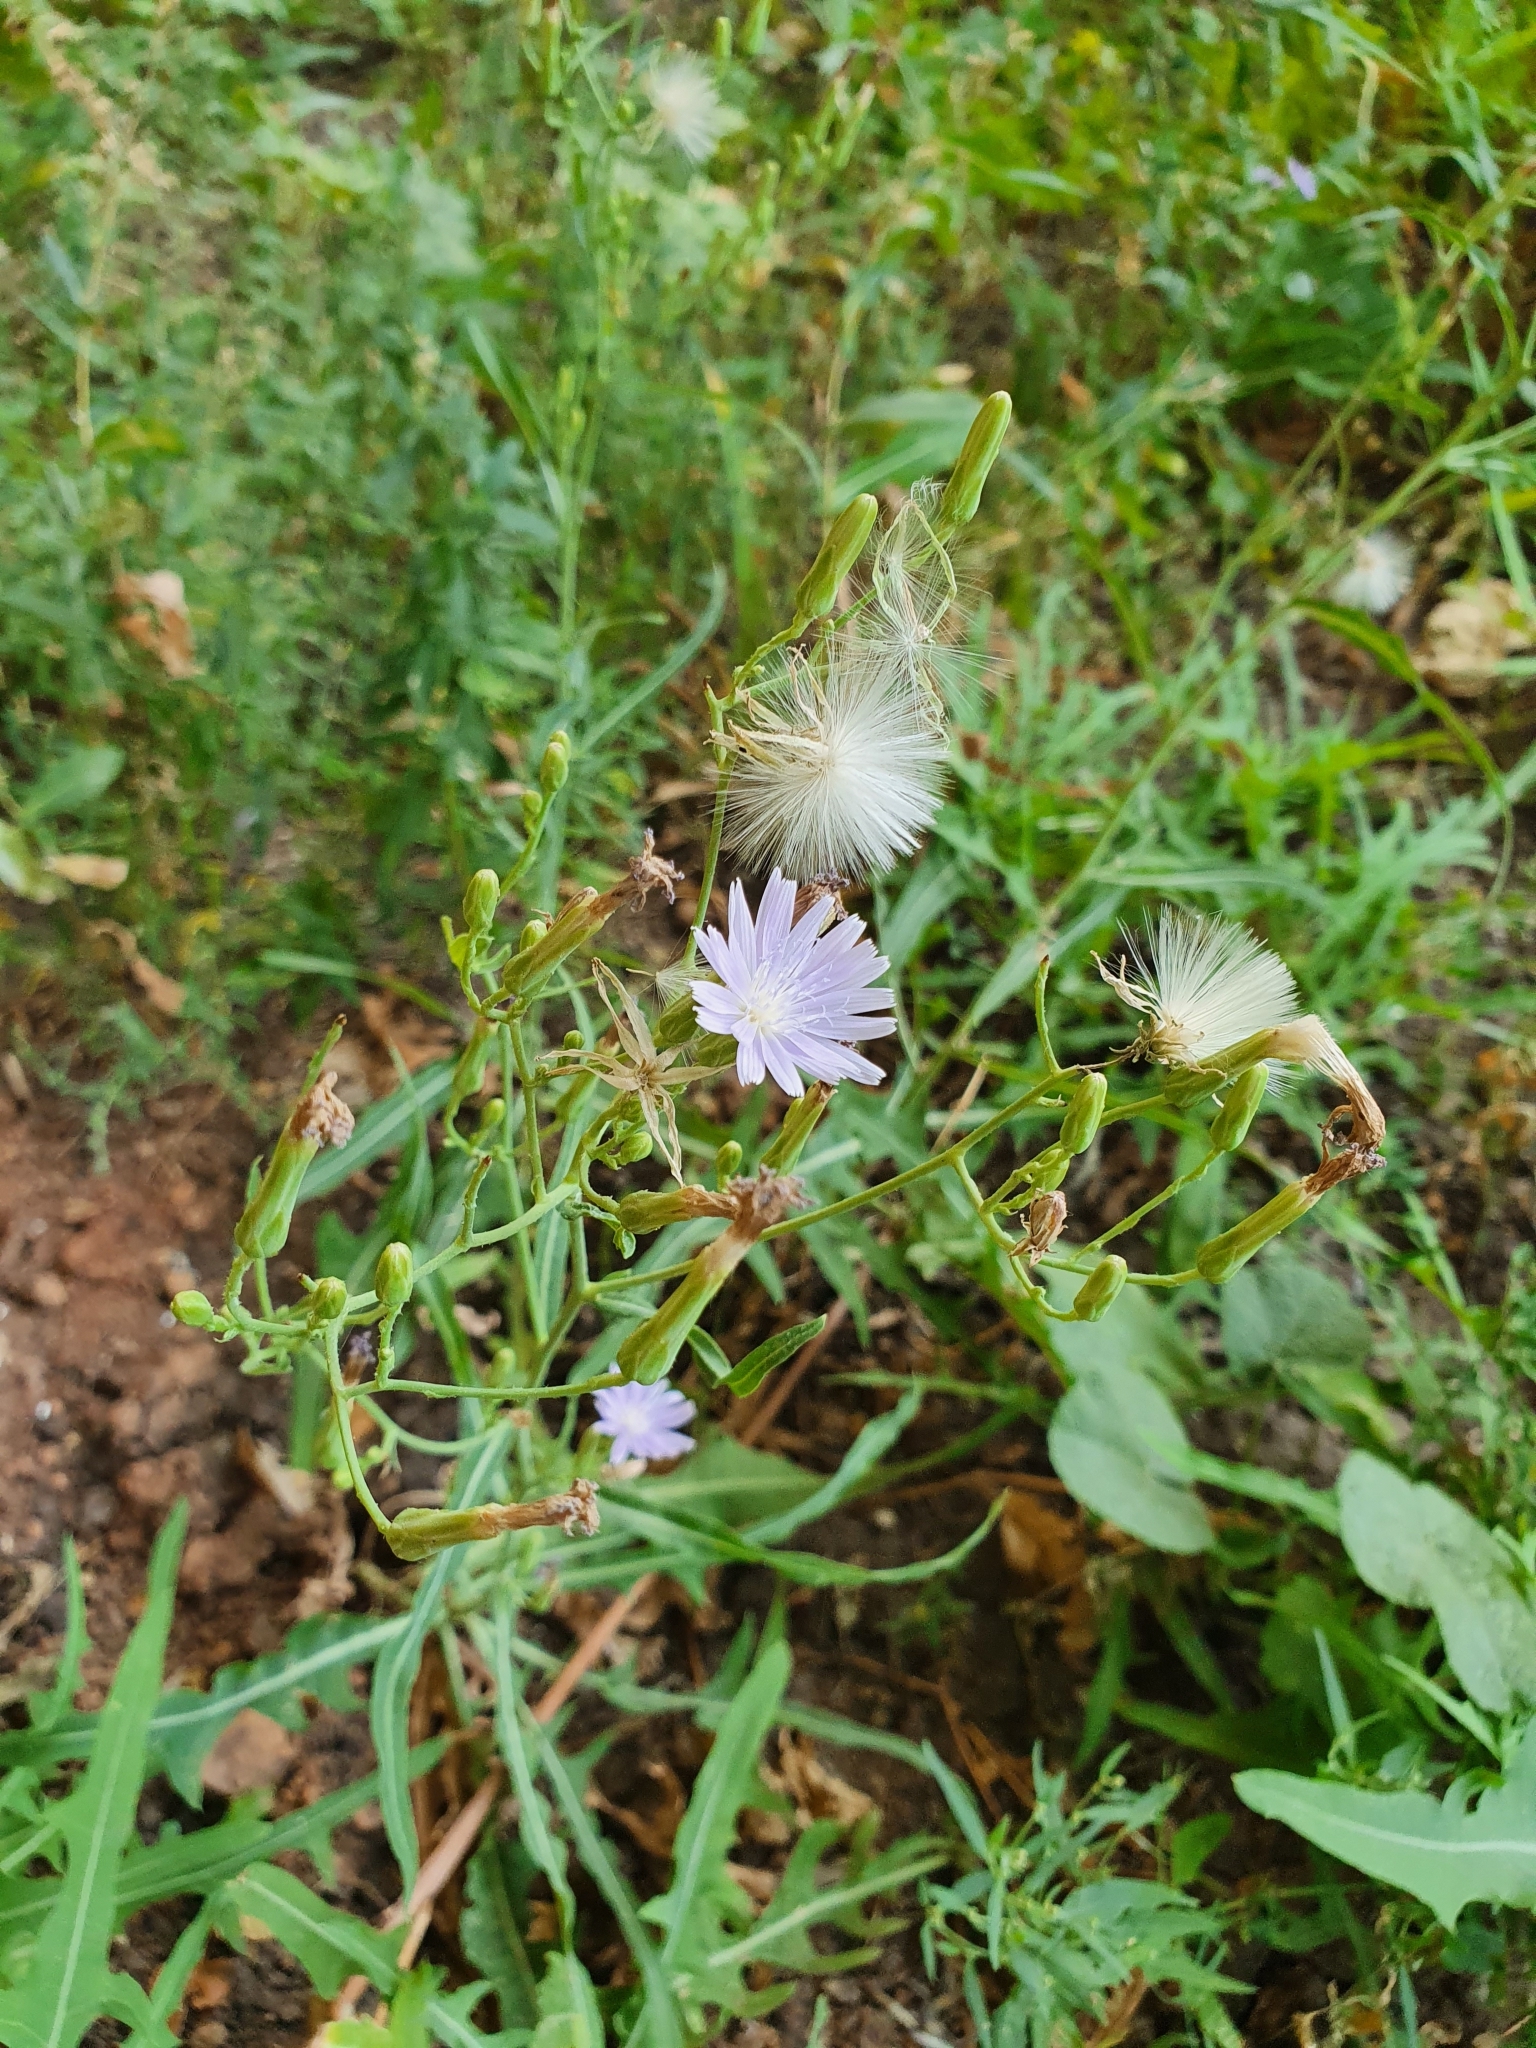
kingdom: Plantae
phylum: Tracheophyta
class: Magnoliopsida
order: Asterales
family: Asteraceae
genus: Lactuca
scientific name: Lactuca tatarica
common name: Blue lettuce
